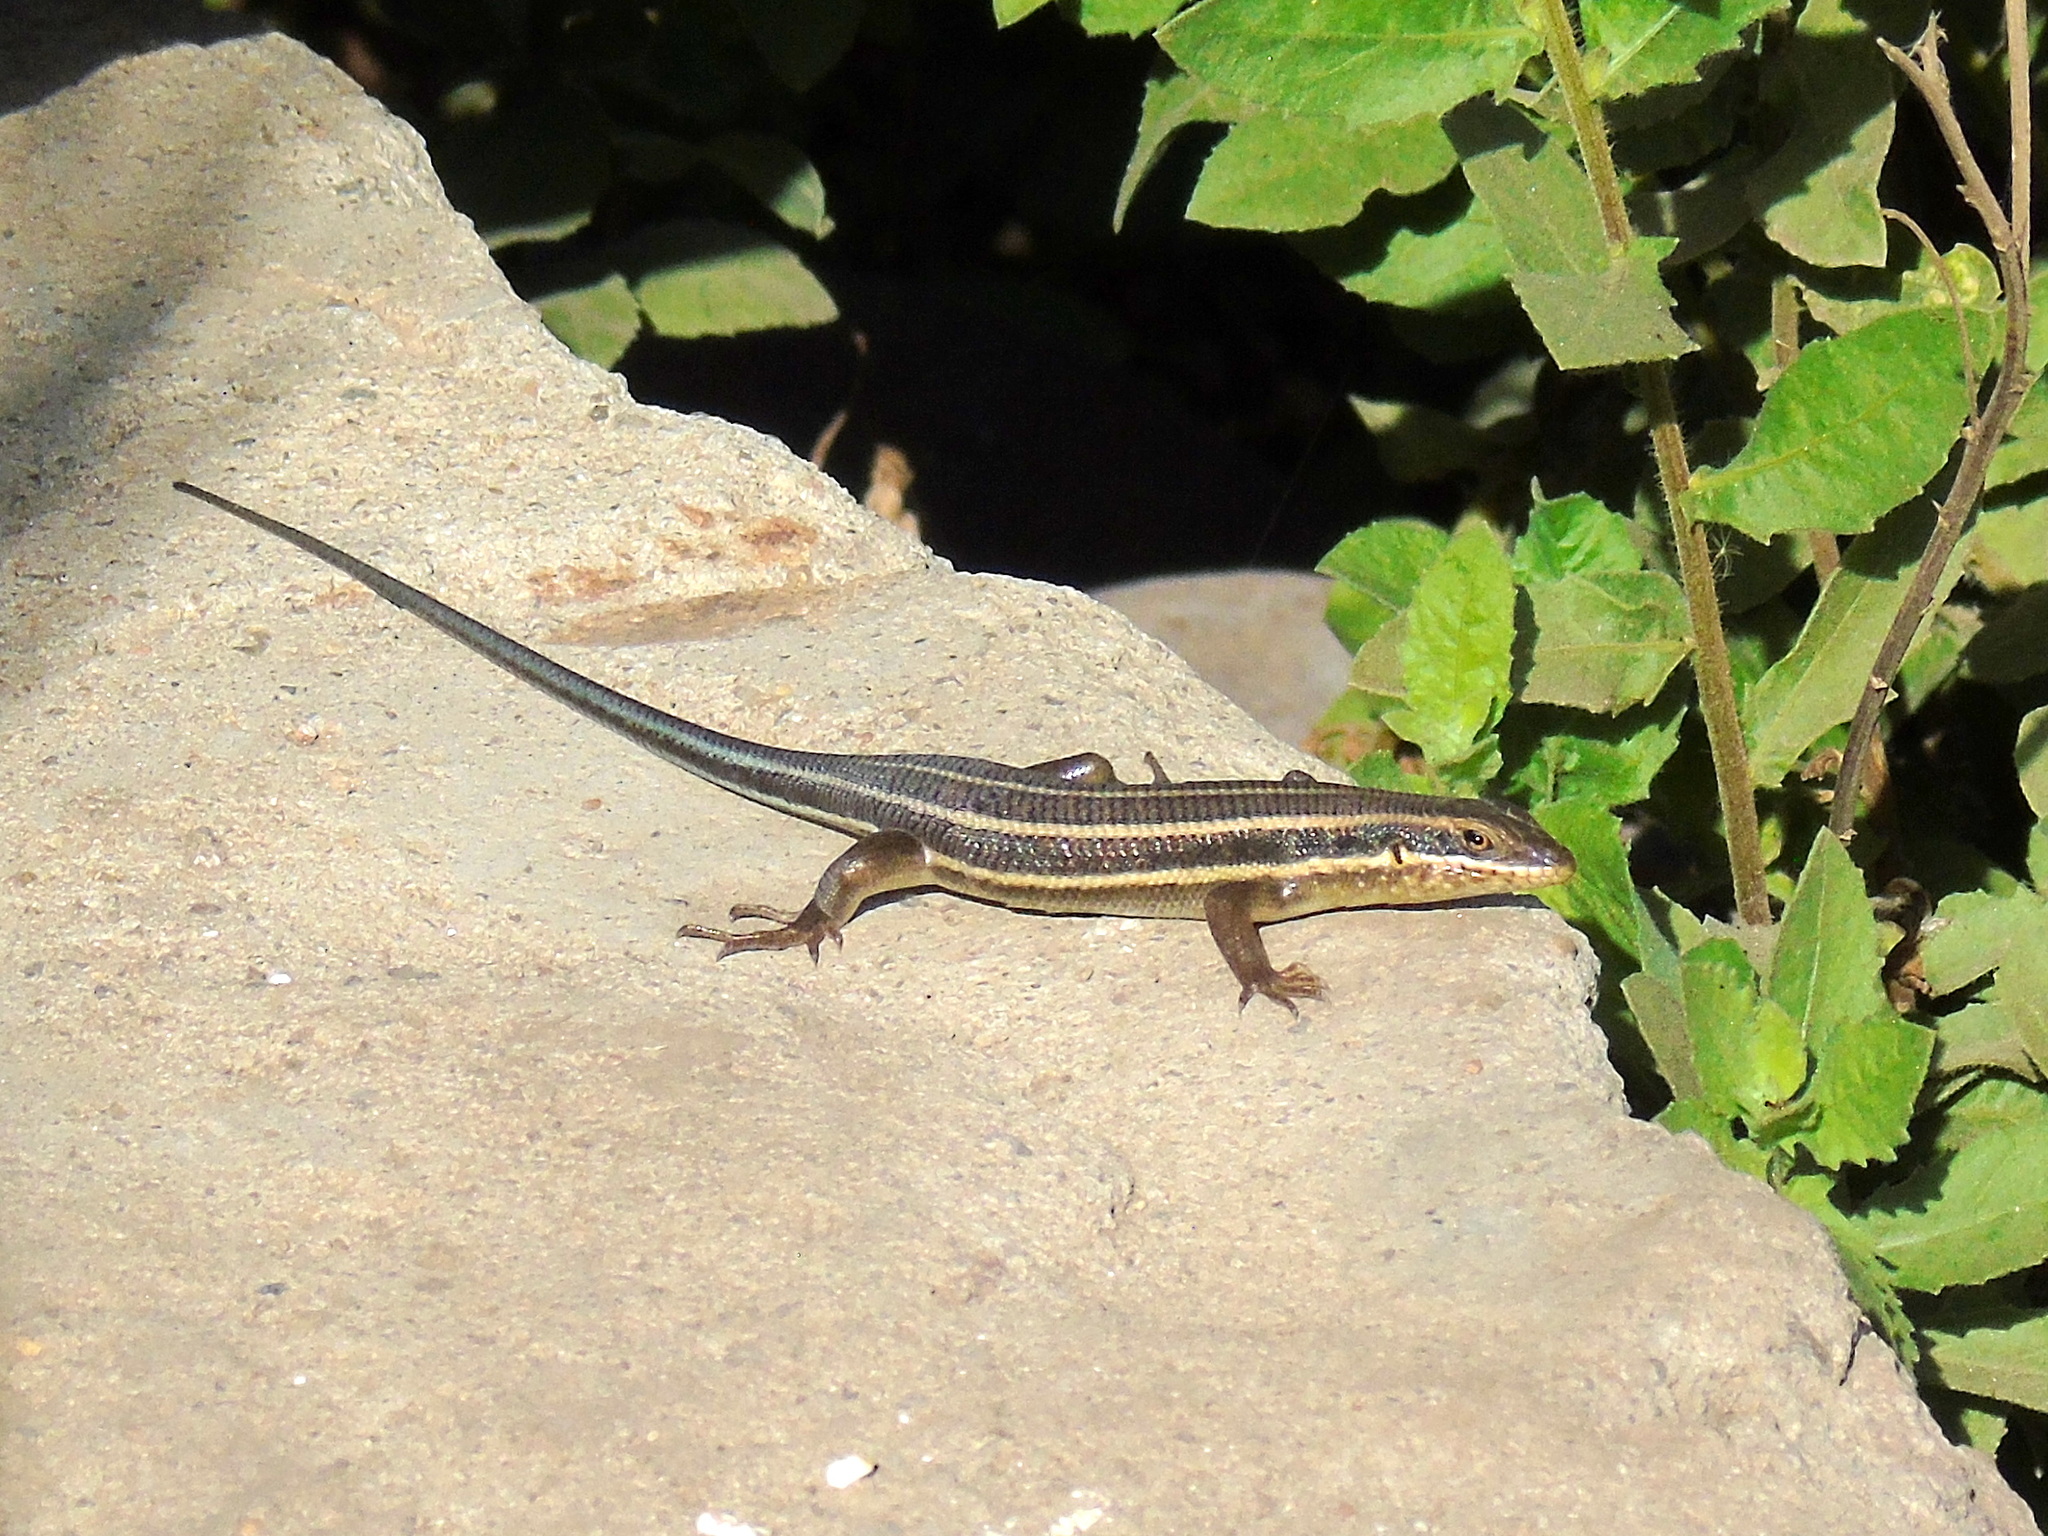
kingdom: Animalia
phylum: Chordata
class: Squamata
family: Scincidae
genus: Trachylepis
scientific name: Trachylepis quinquetaeniata
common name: African five-lined skink
